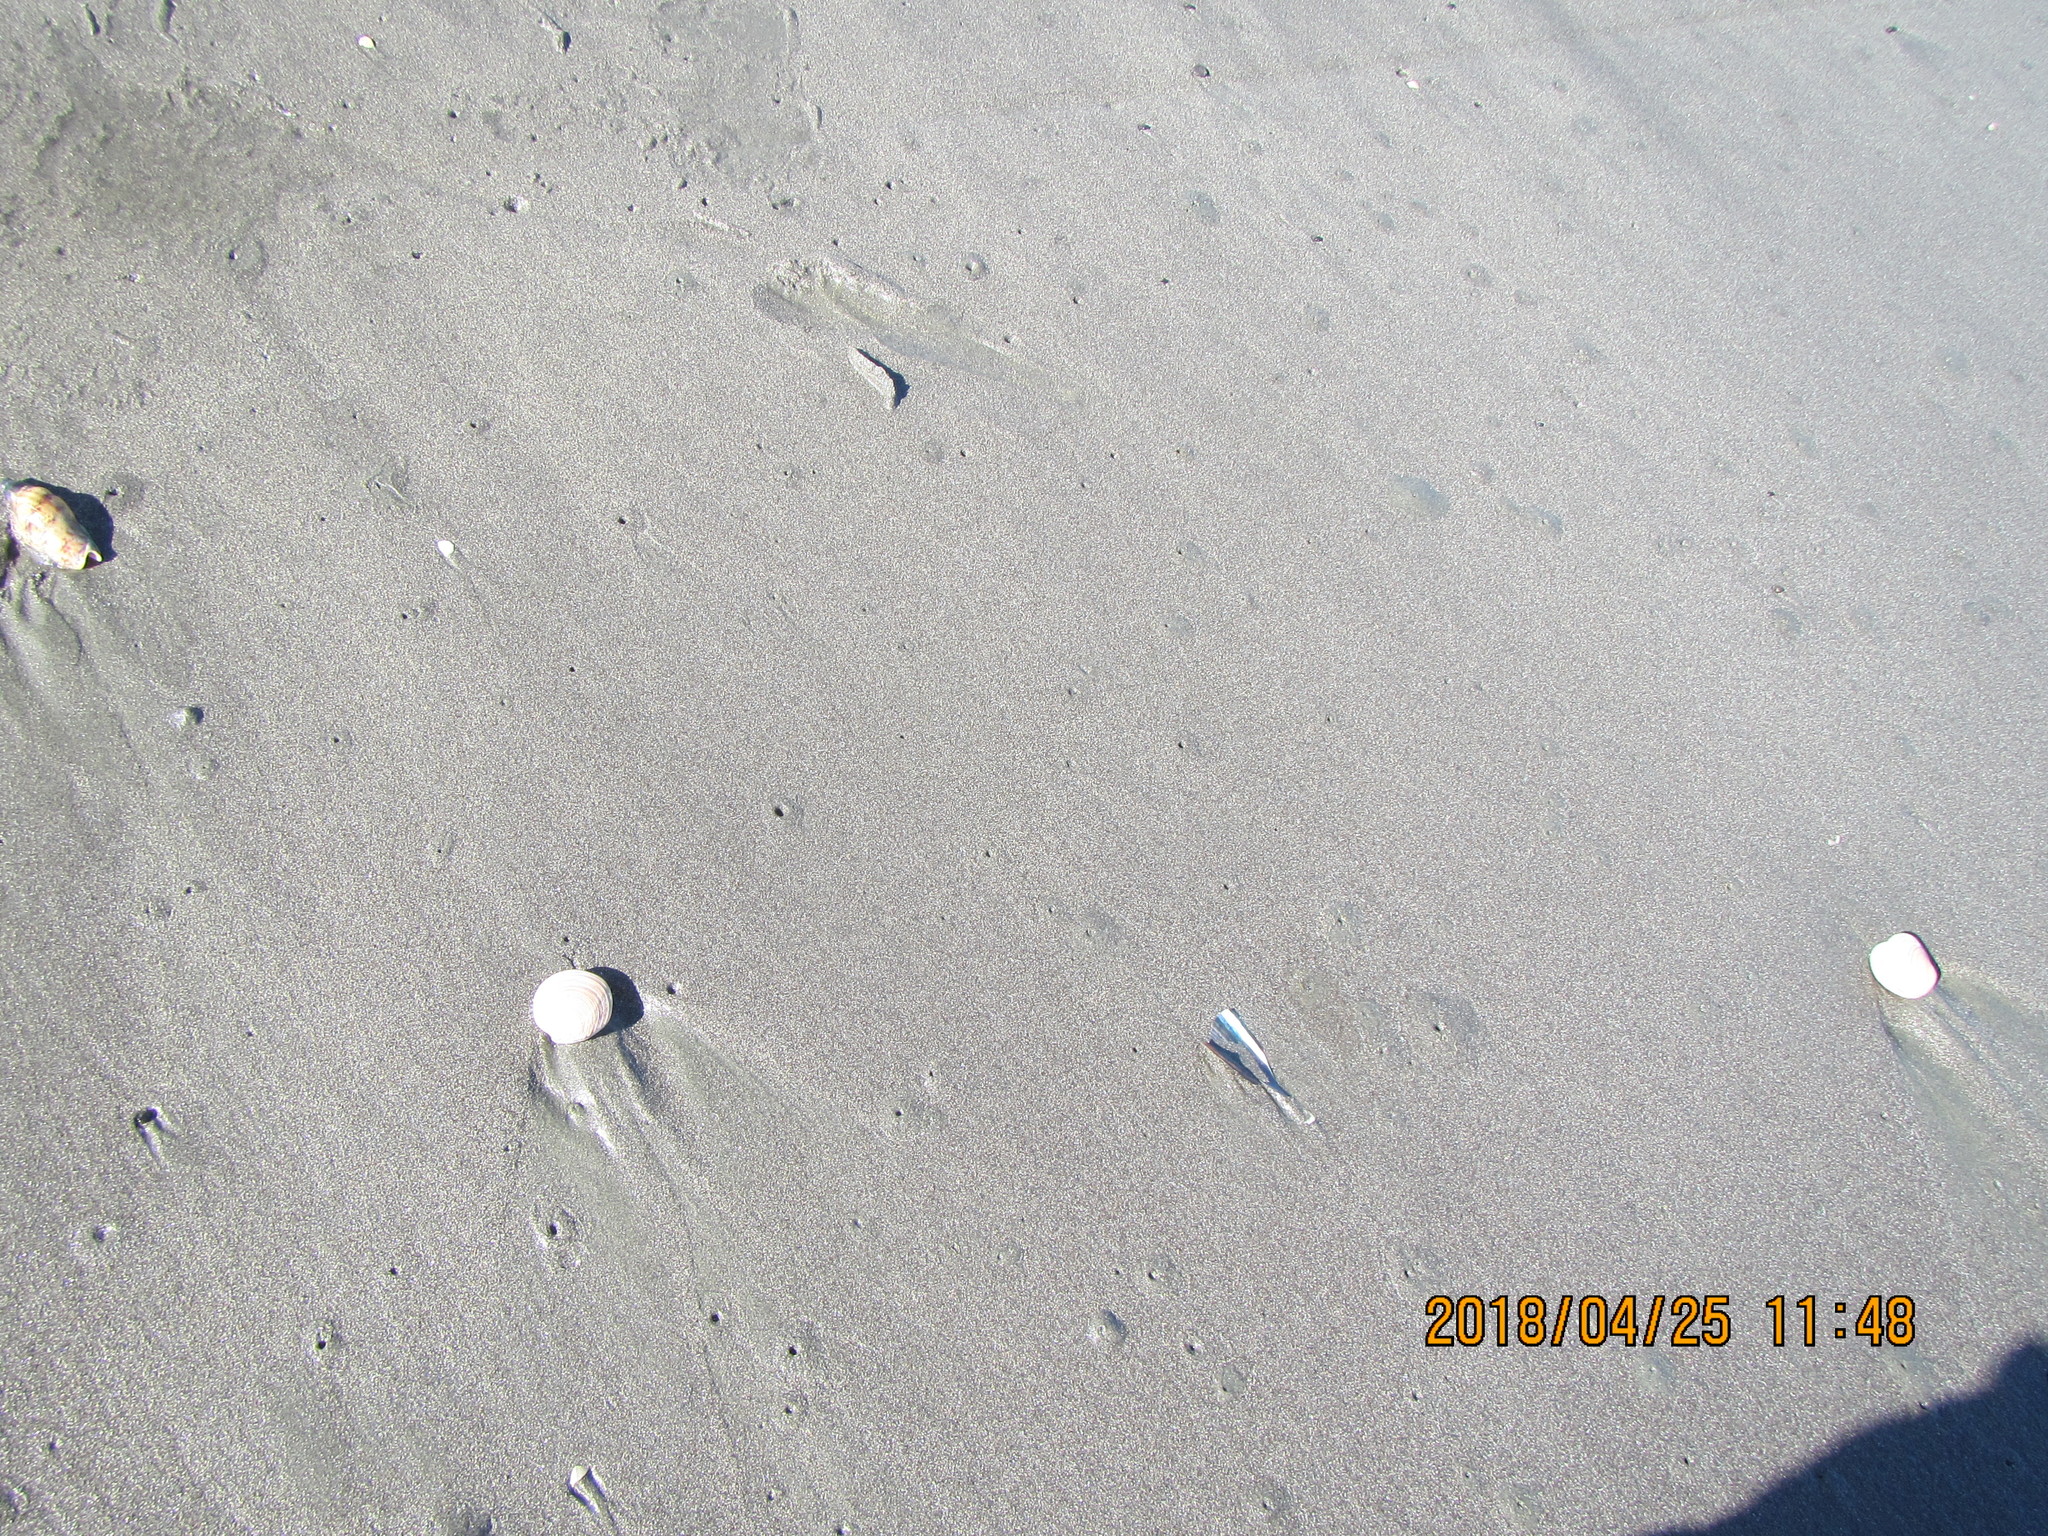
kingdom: Animalia
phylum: Mollusca
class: Bivalvia
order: Venerida
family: Veneridae
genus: Dosinia
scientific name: Dosinia anus
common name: Old-woman dosinia
